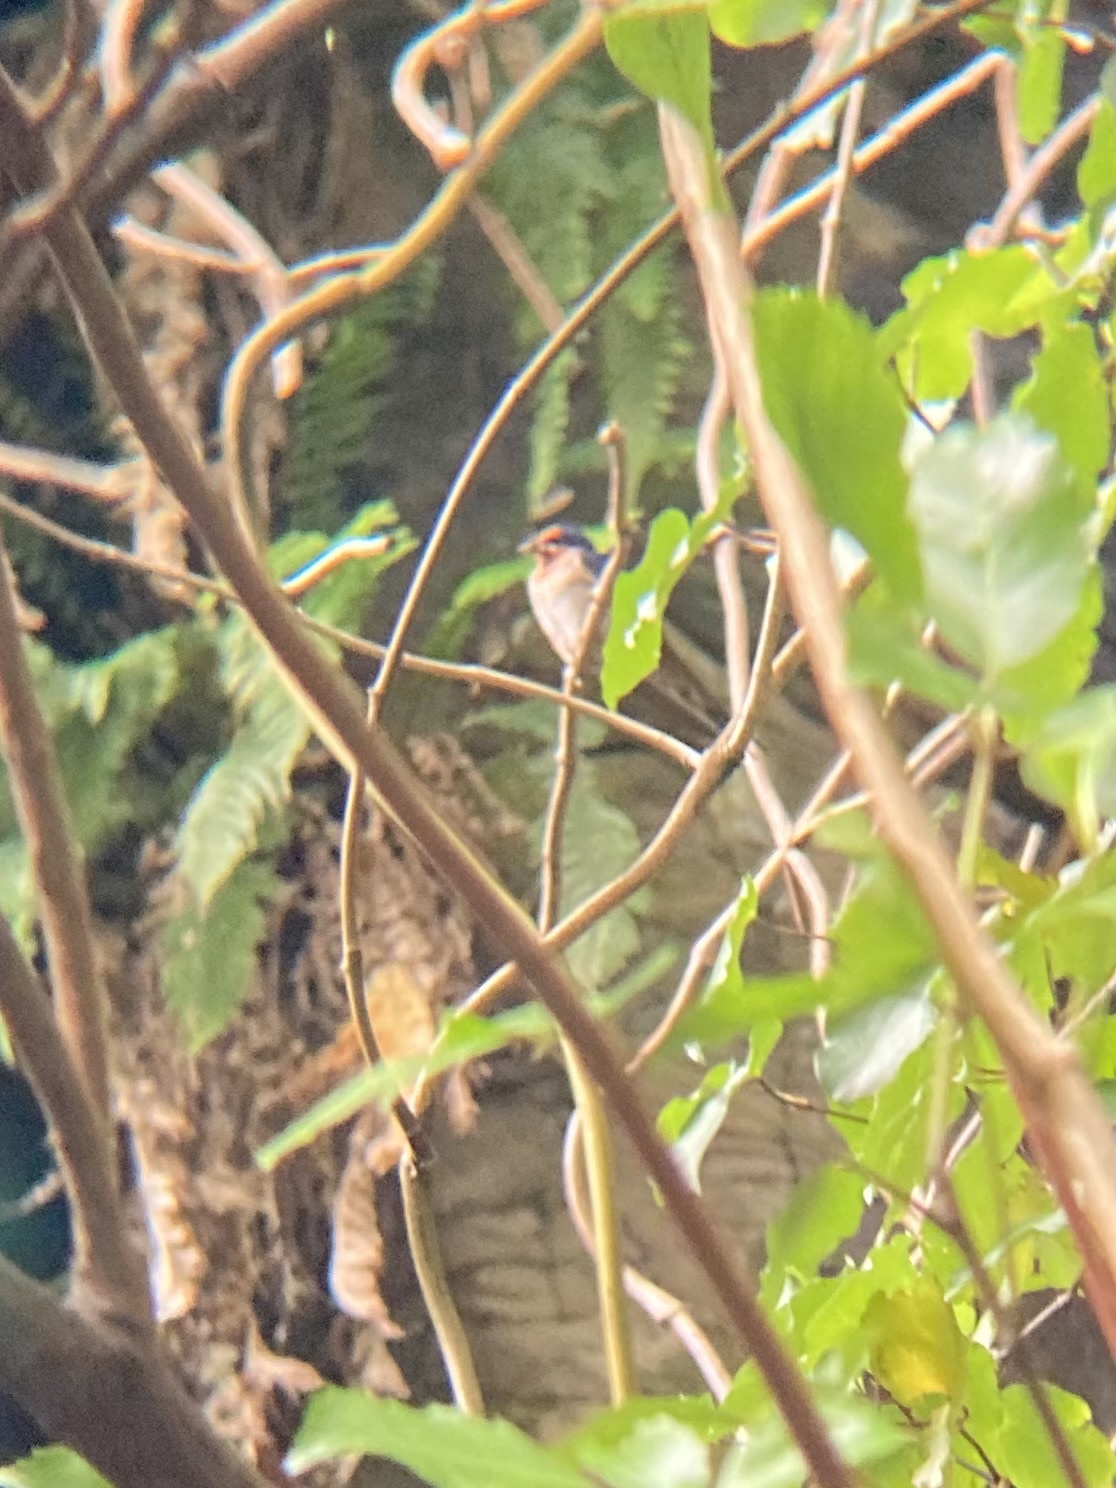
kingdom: Animalia
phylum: Chordata
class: Aves
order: Passeriformes
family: Hirundinidae
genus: Hirundo
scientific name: Hirundo neoxena
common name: Welcome swallow
